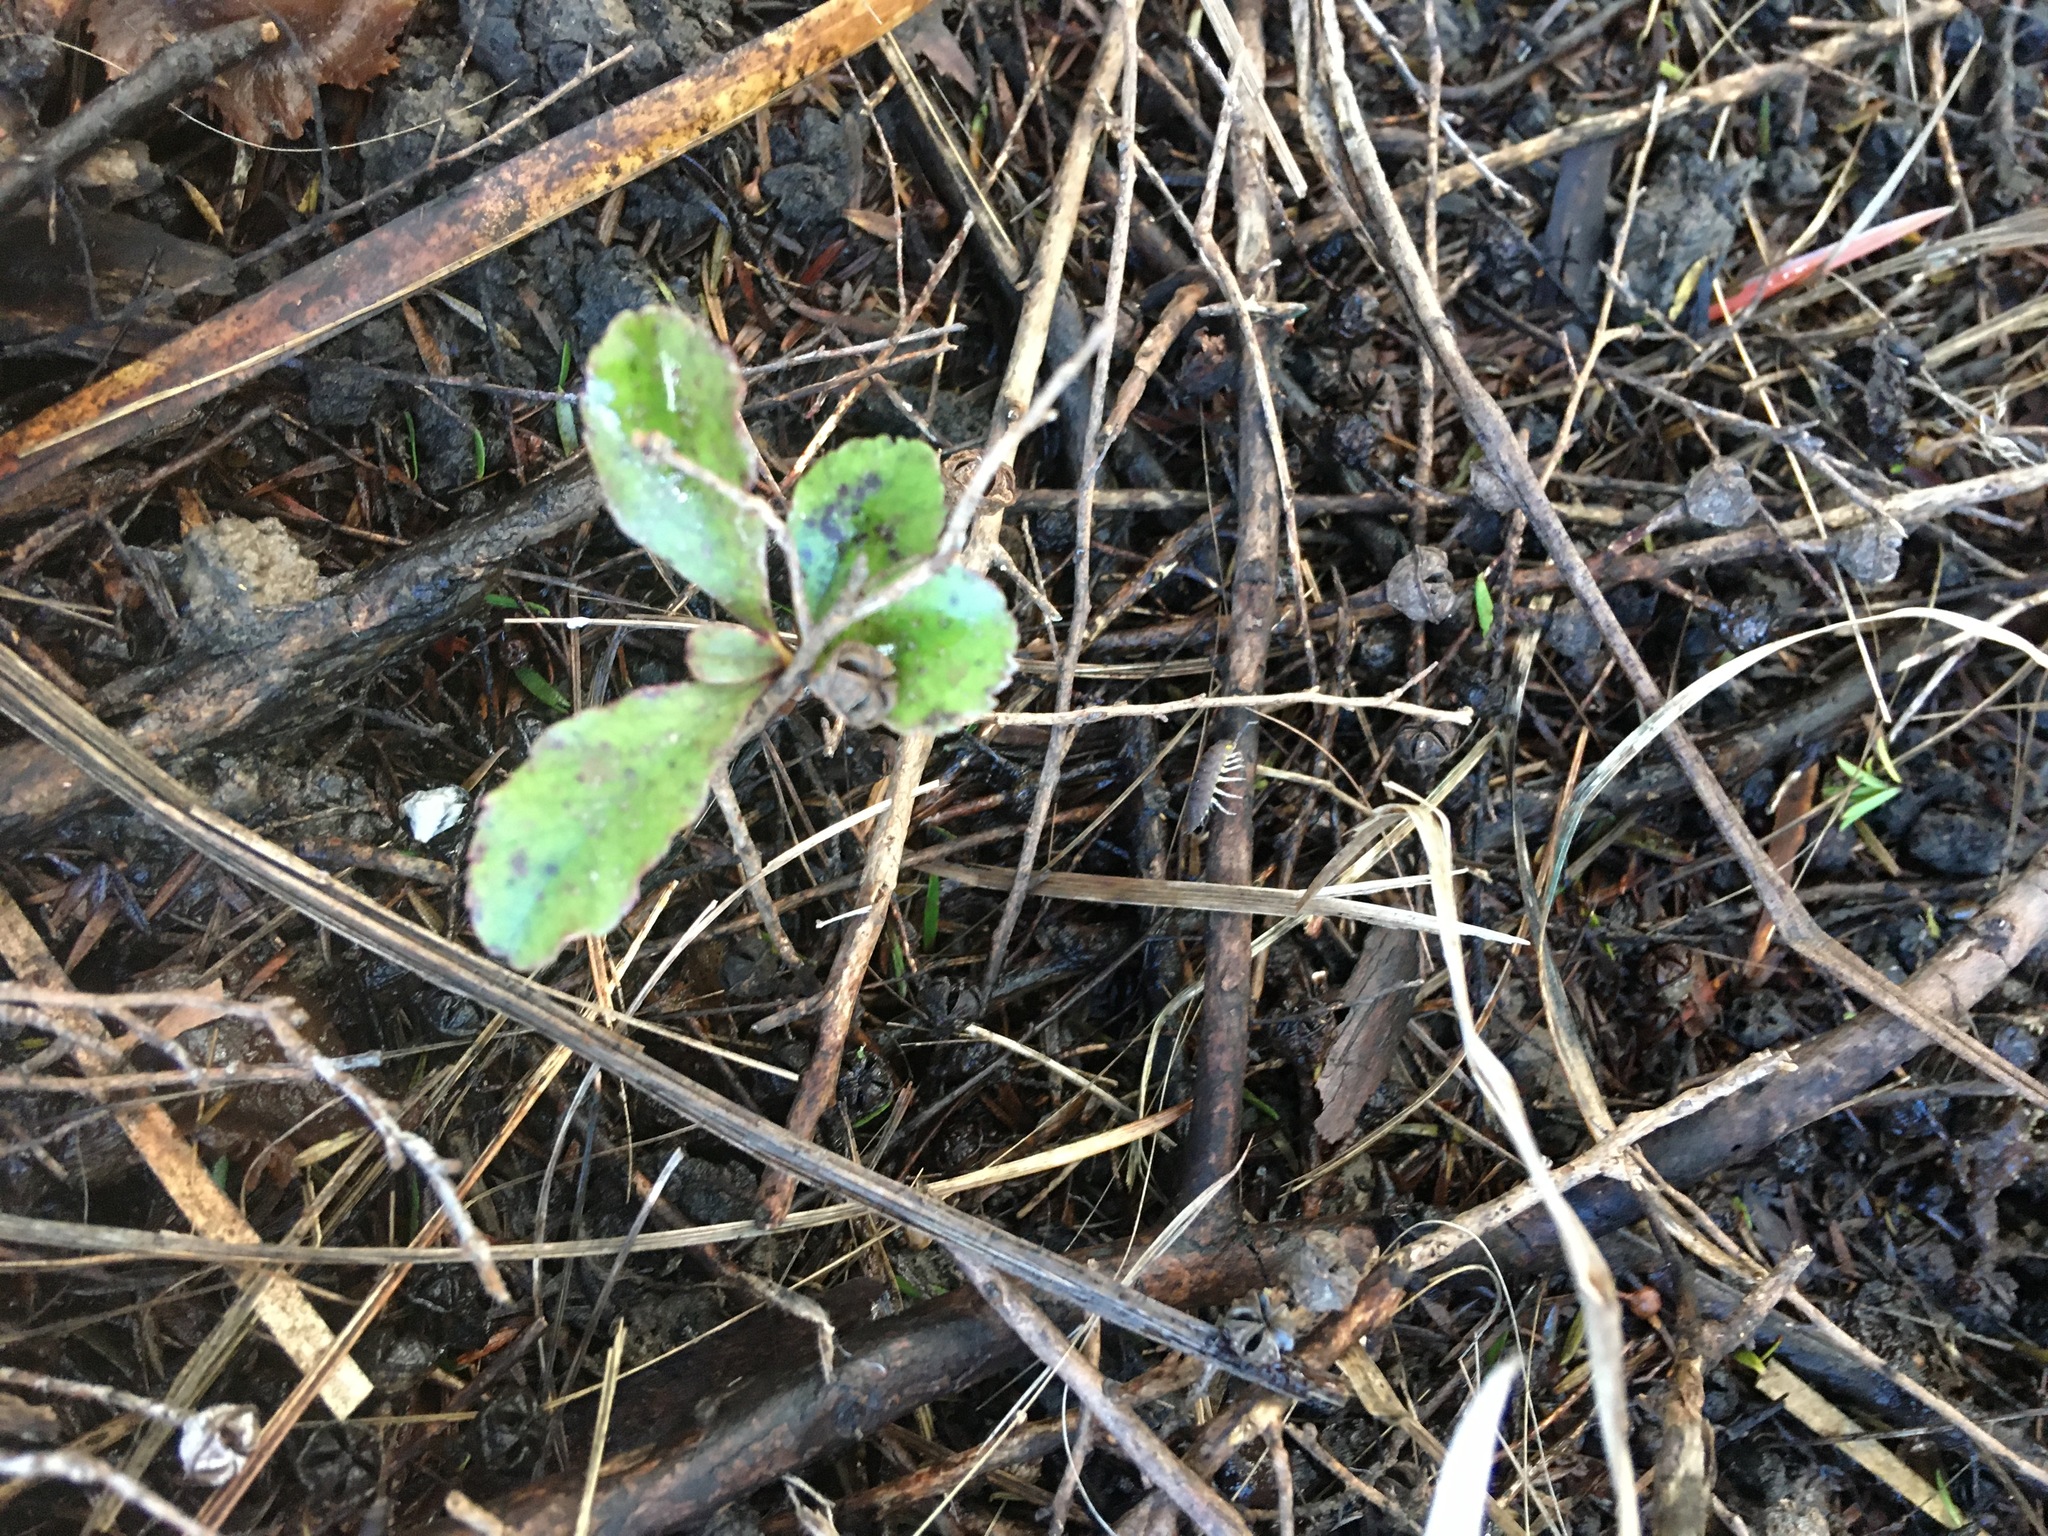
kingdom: Plantae
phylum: Tracheophyta
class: Magnoliopsida
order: Ericales
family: Primulaceae
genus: Myrsine
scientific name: Myrsine australis
